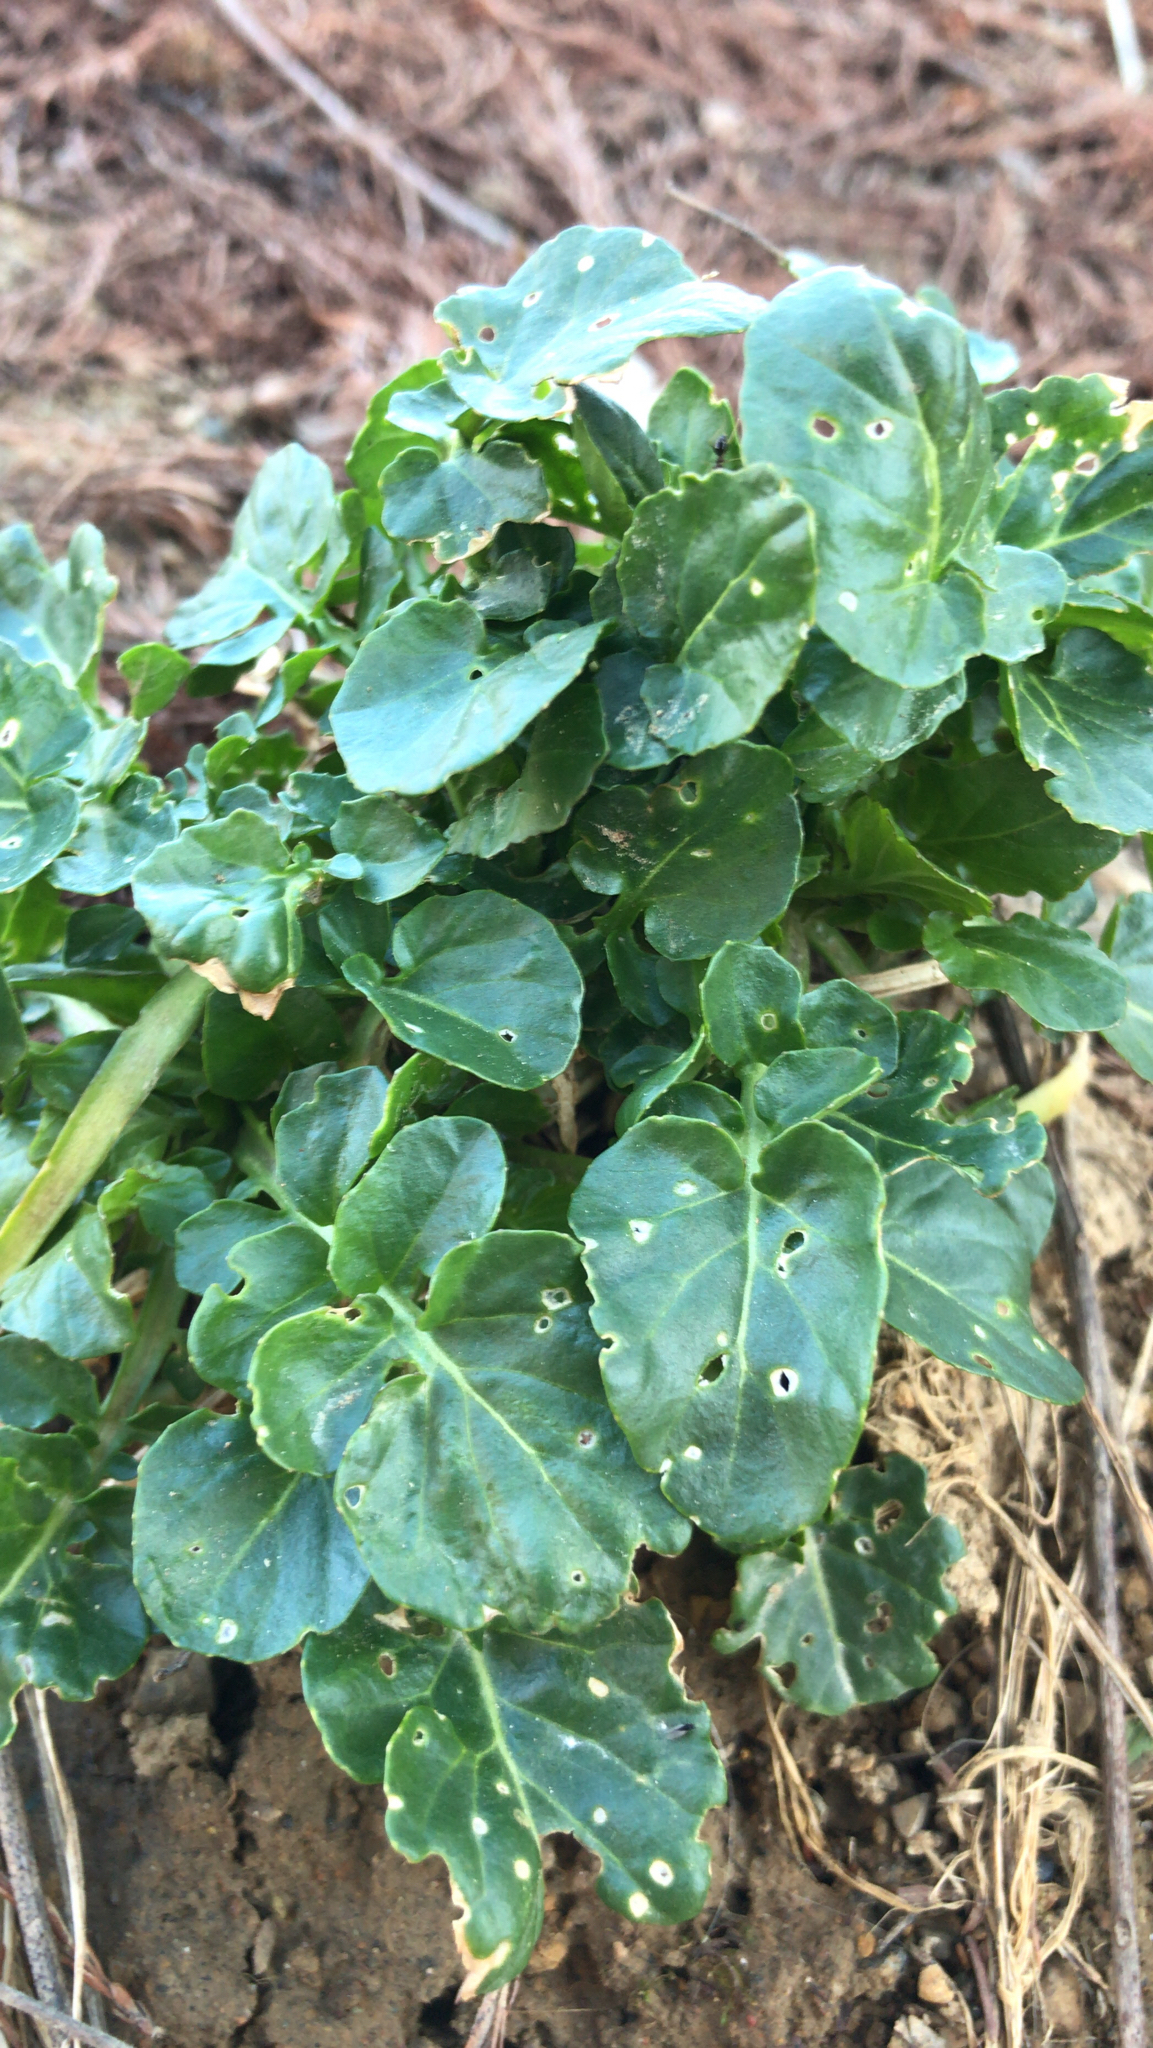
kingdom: Plantae
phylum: Tracheophyta
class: Magnoliopsida
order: Brassicales
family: Brassicaceae
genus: Barbarea
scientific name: Barbarea vulgaris
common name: Cressy-greens
